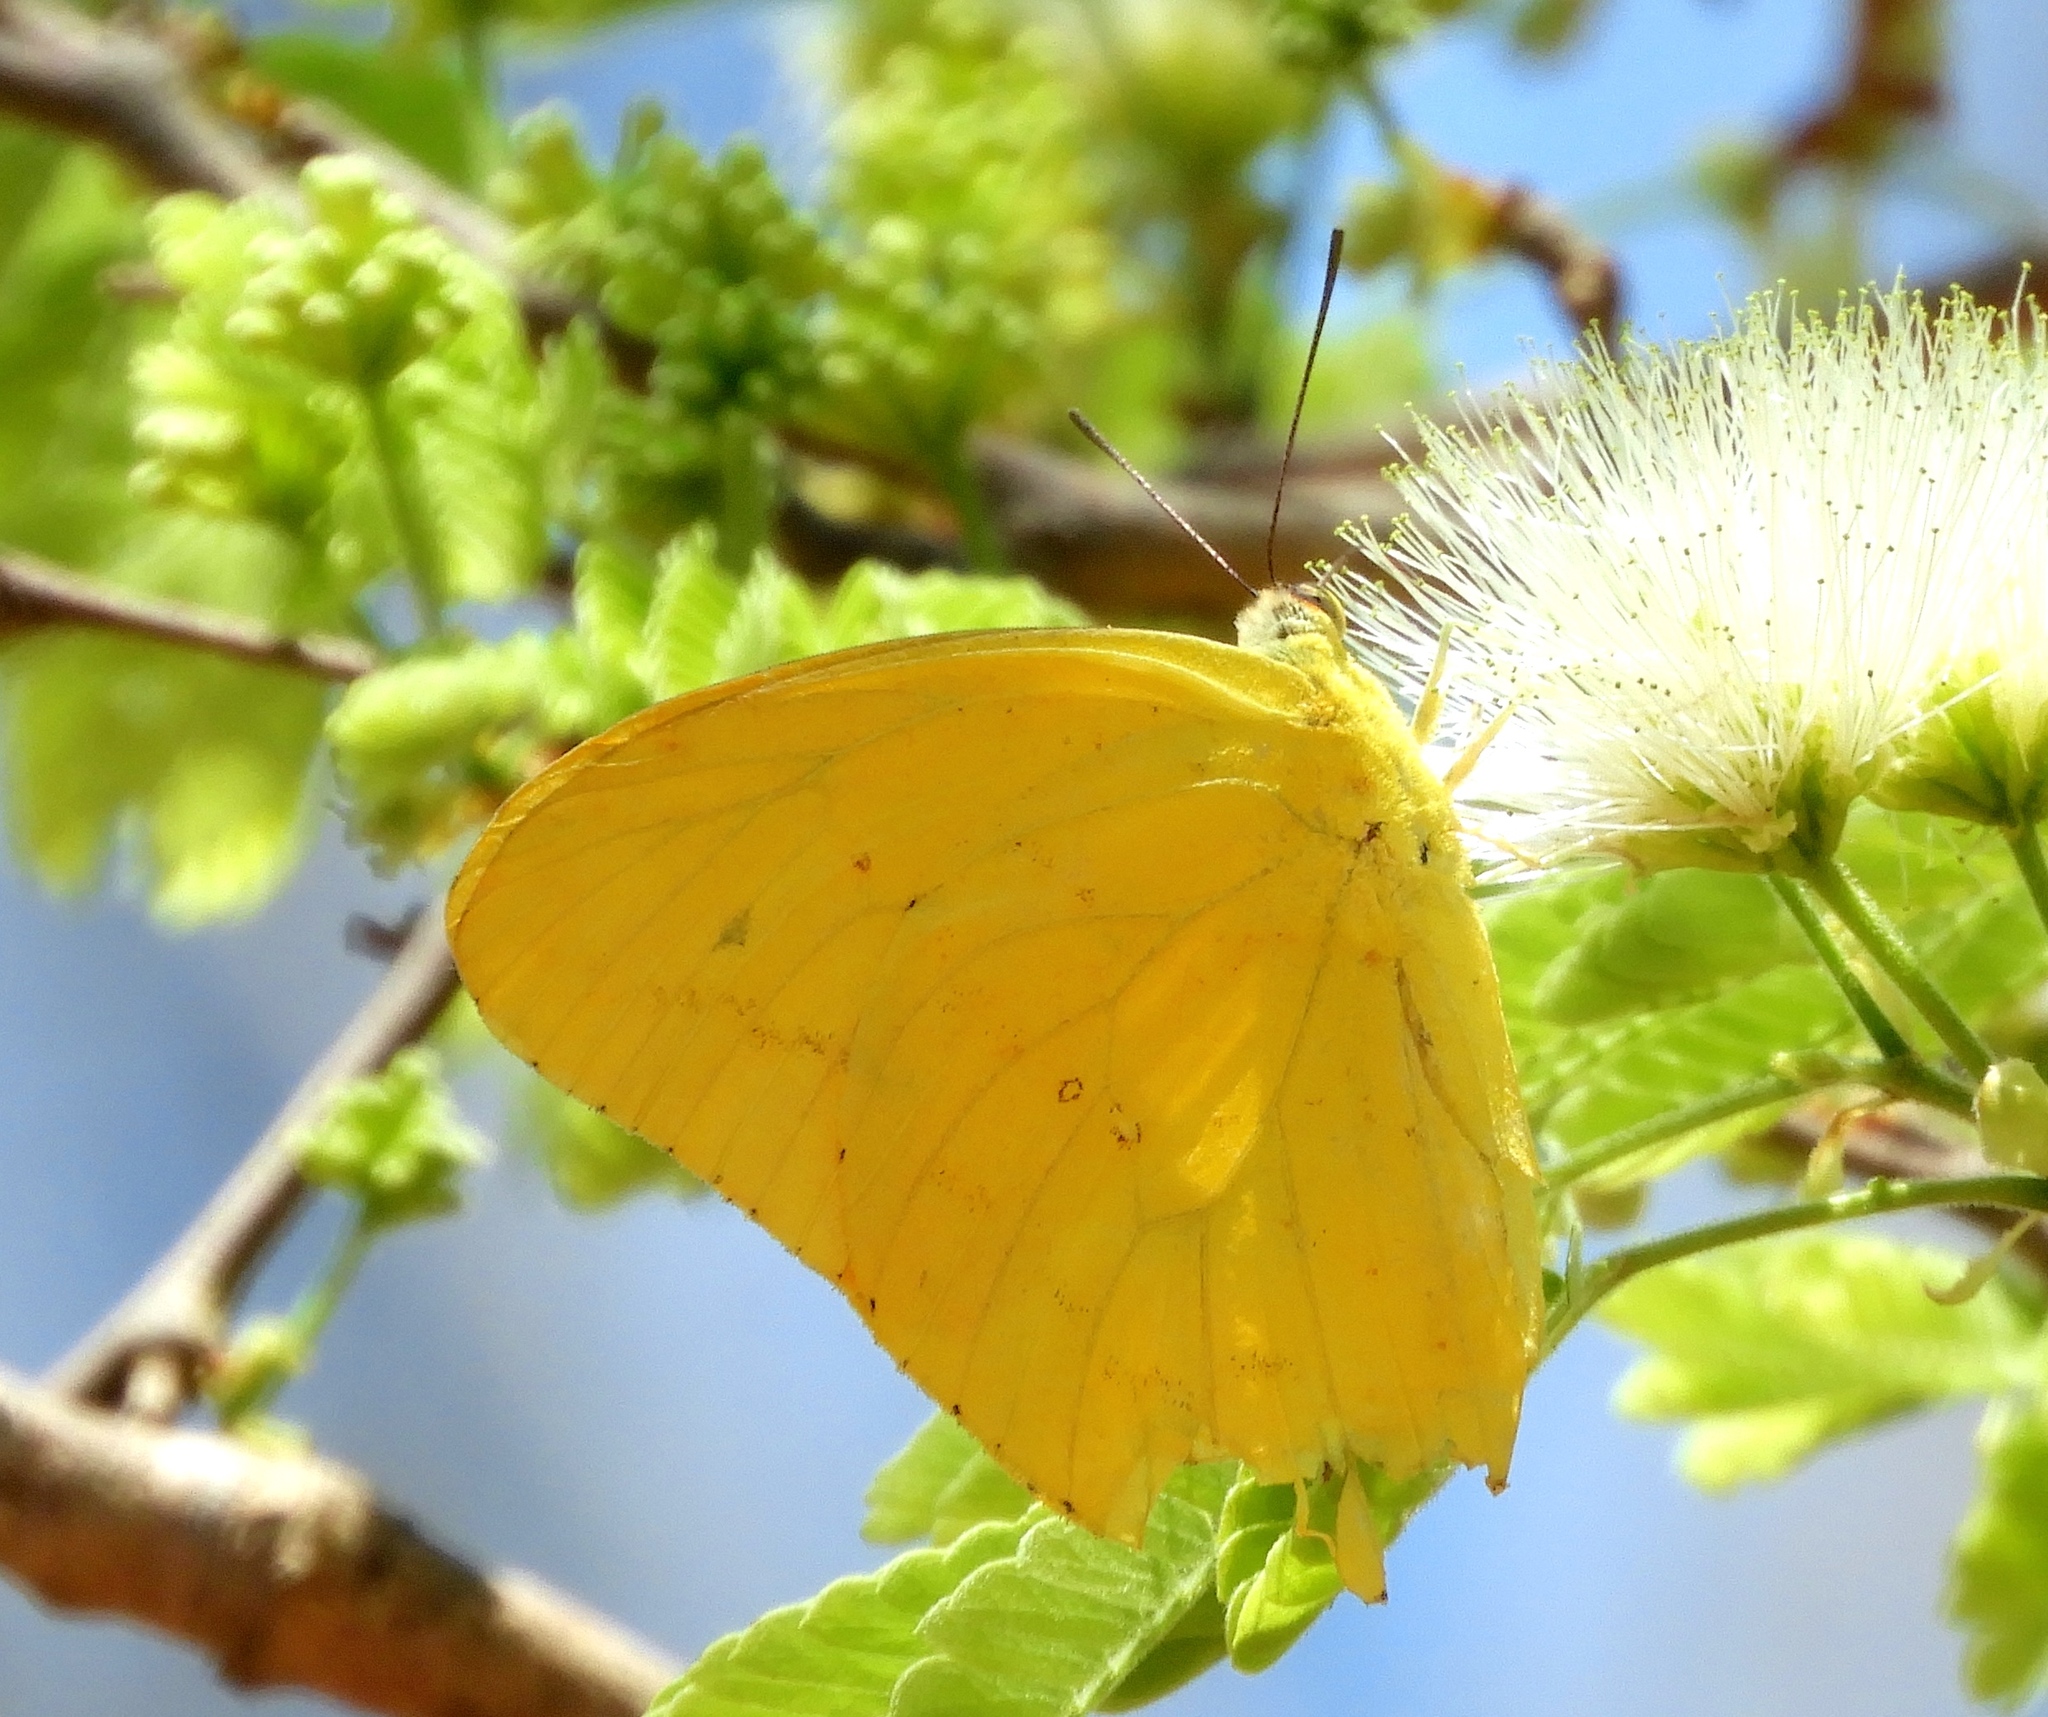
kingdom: Animalia
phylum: Arthropoda
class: Insecta
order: Lepidoptera
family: Pieridae
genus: Phoebis
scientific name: Phoebis agarithe
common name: Large orange sulphur
